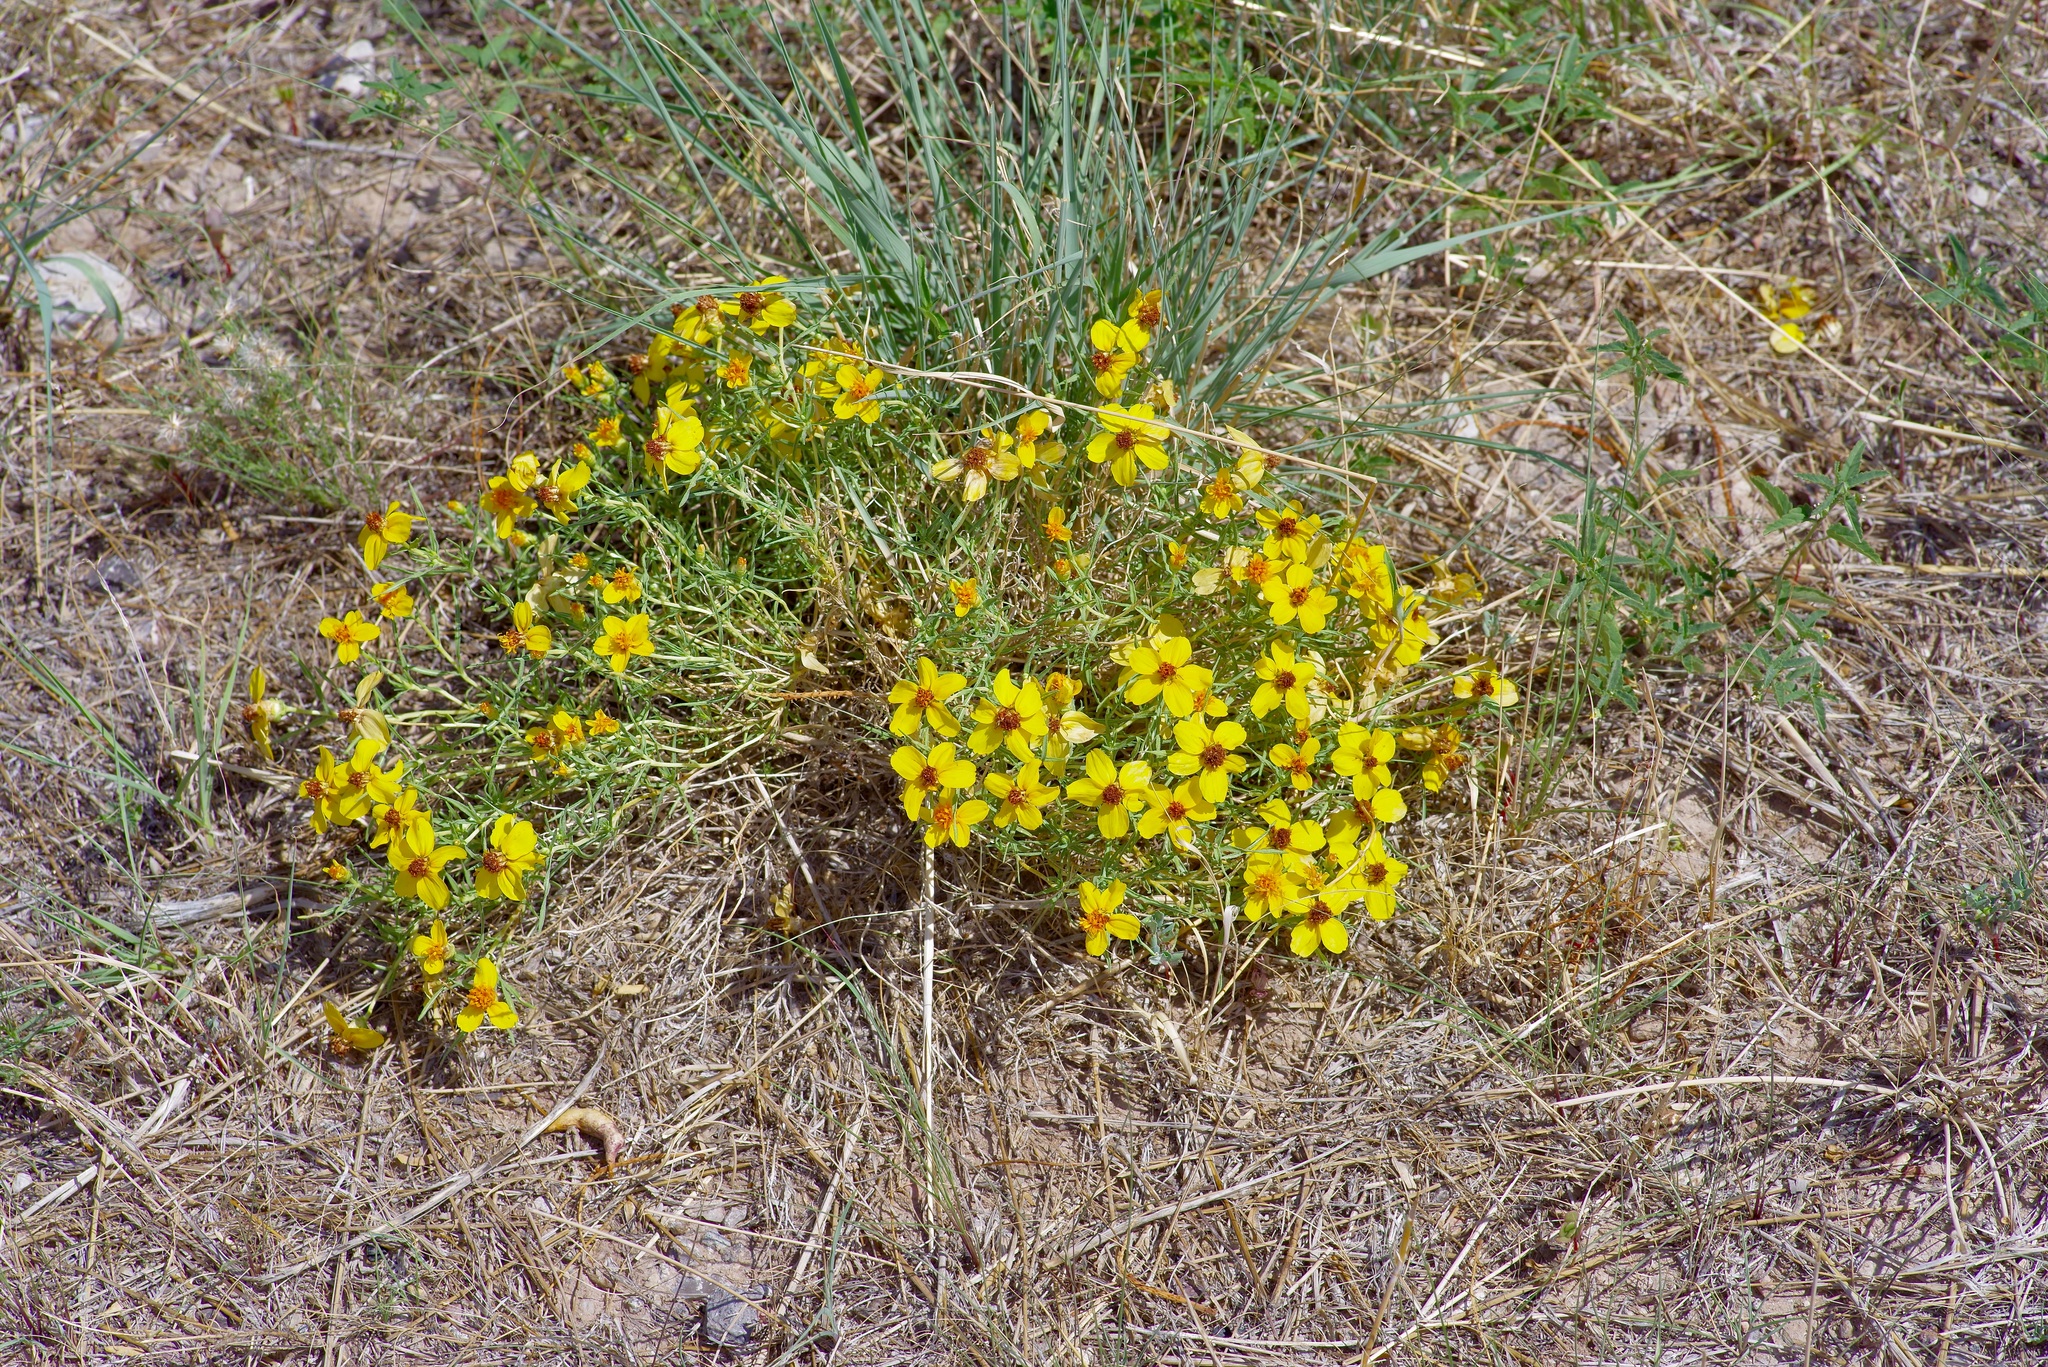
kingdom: Plantae
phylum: Tracheophyta
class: Magnoliopsida
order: Asterales
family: Asteraceae
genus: Zinnia
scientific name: Zinnia grandiflora
